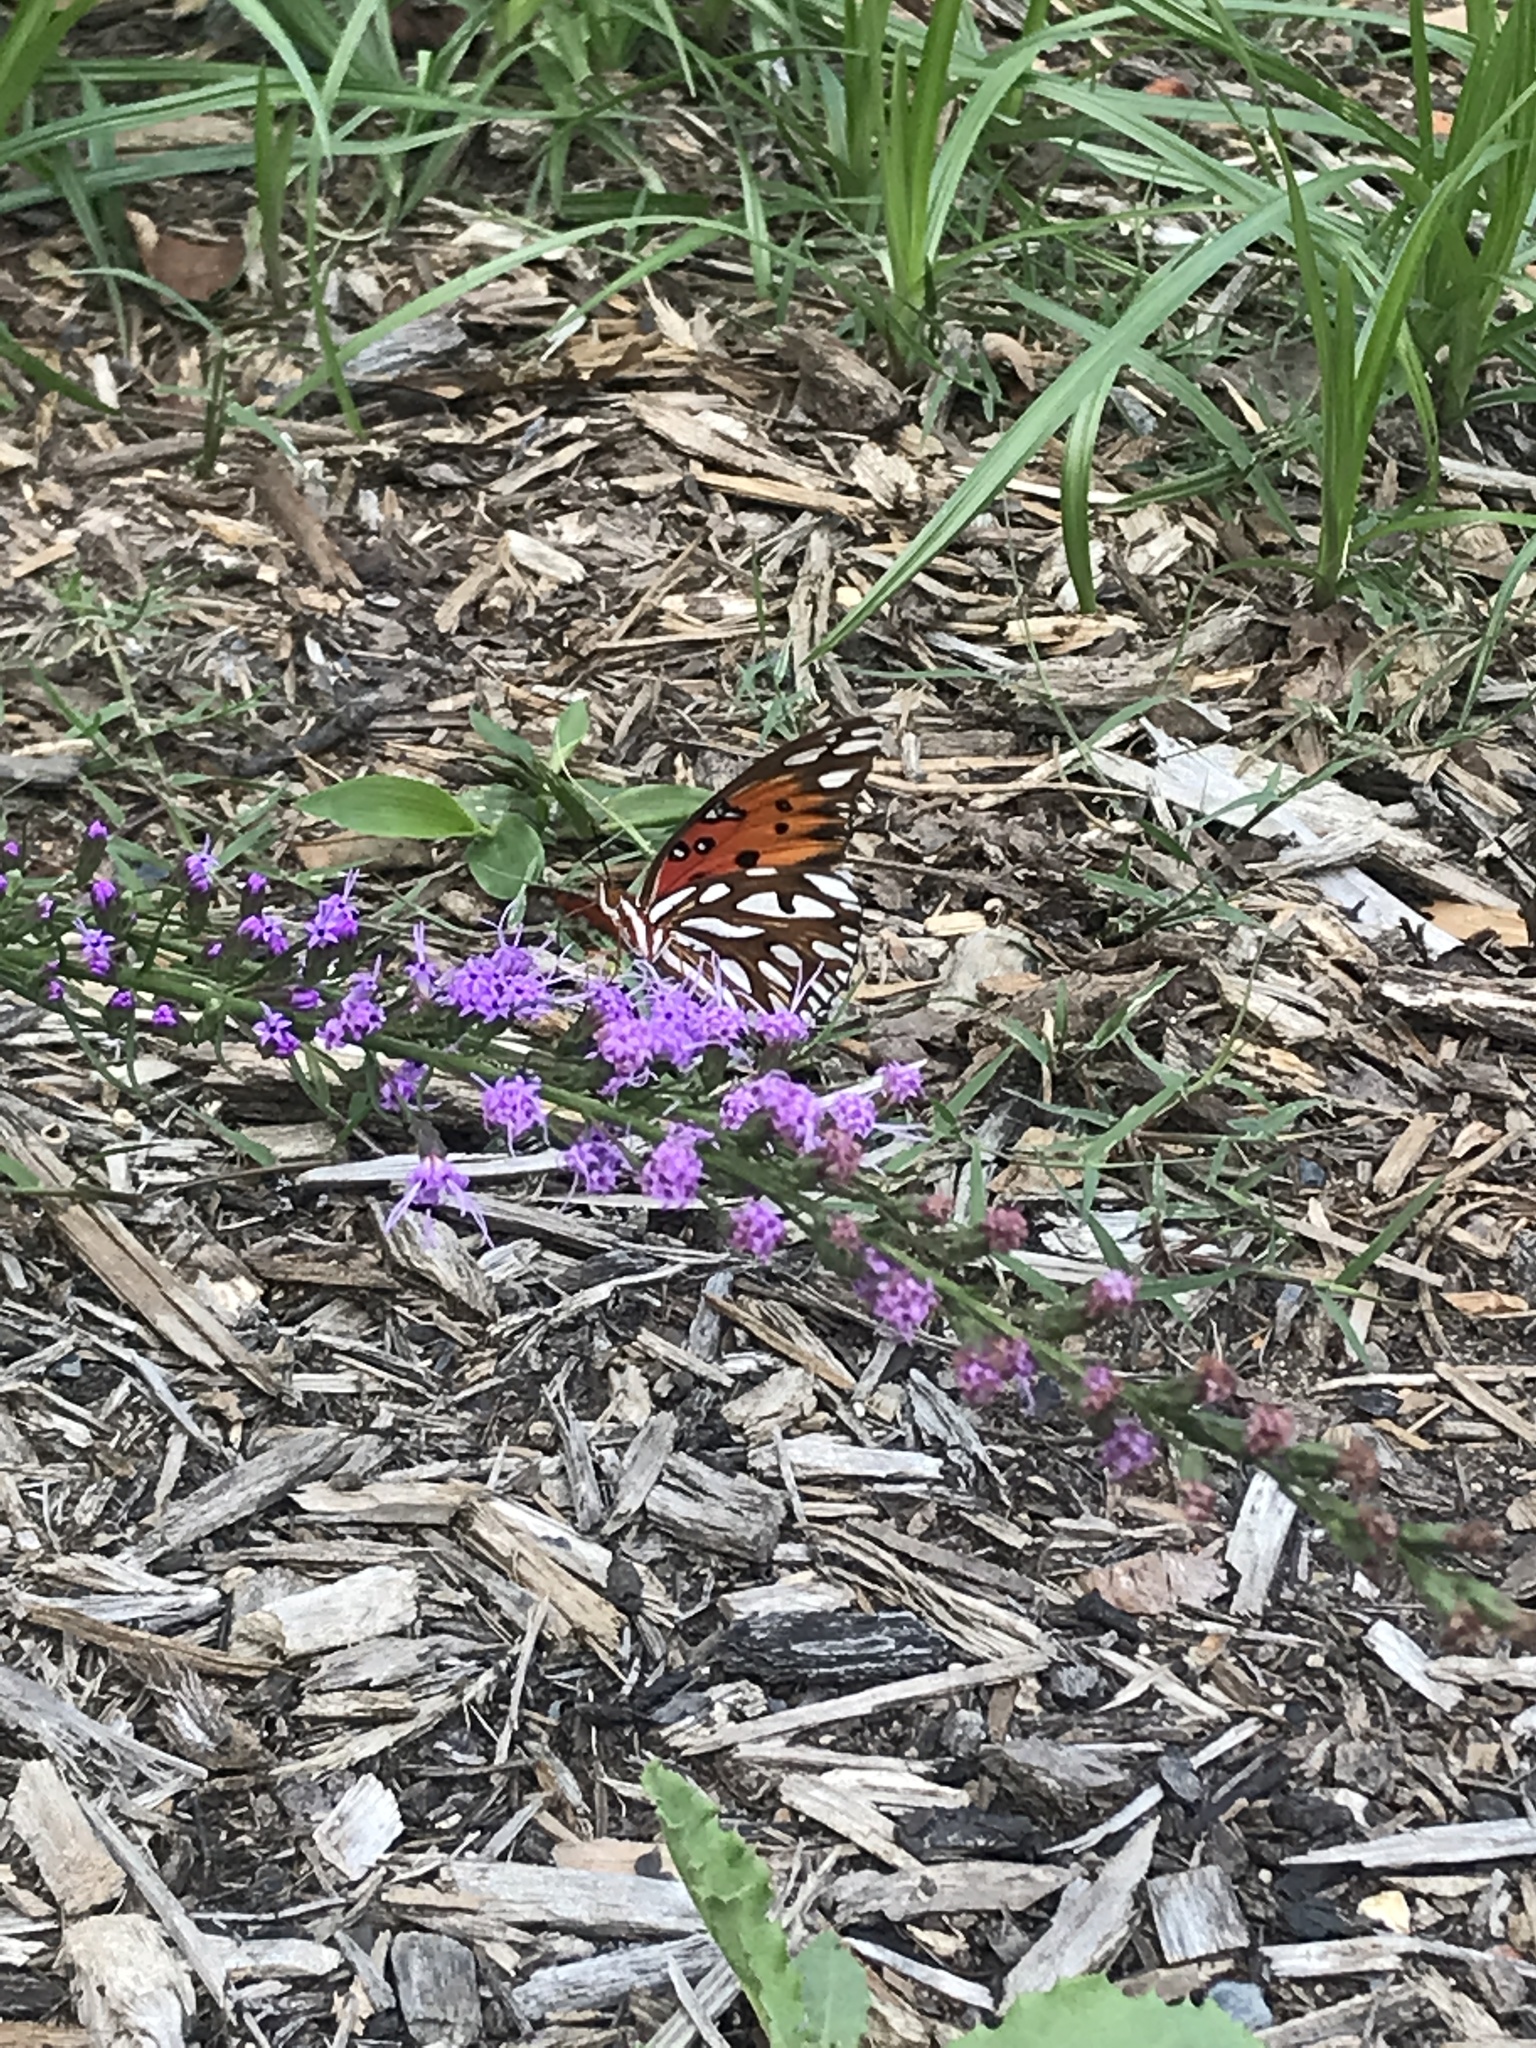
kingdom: Animalia
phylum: Arthropoda
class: Insecta
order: Lepidoptera
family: Nymphalidae
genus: Dione
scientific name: Dione vanillae
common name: Gulf fritillary
